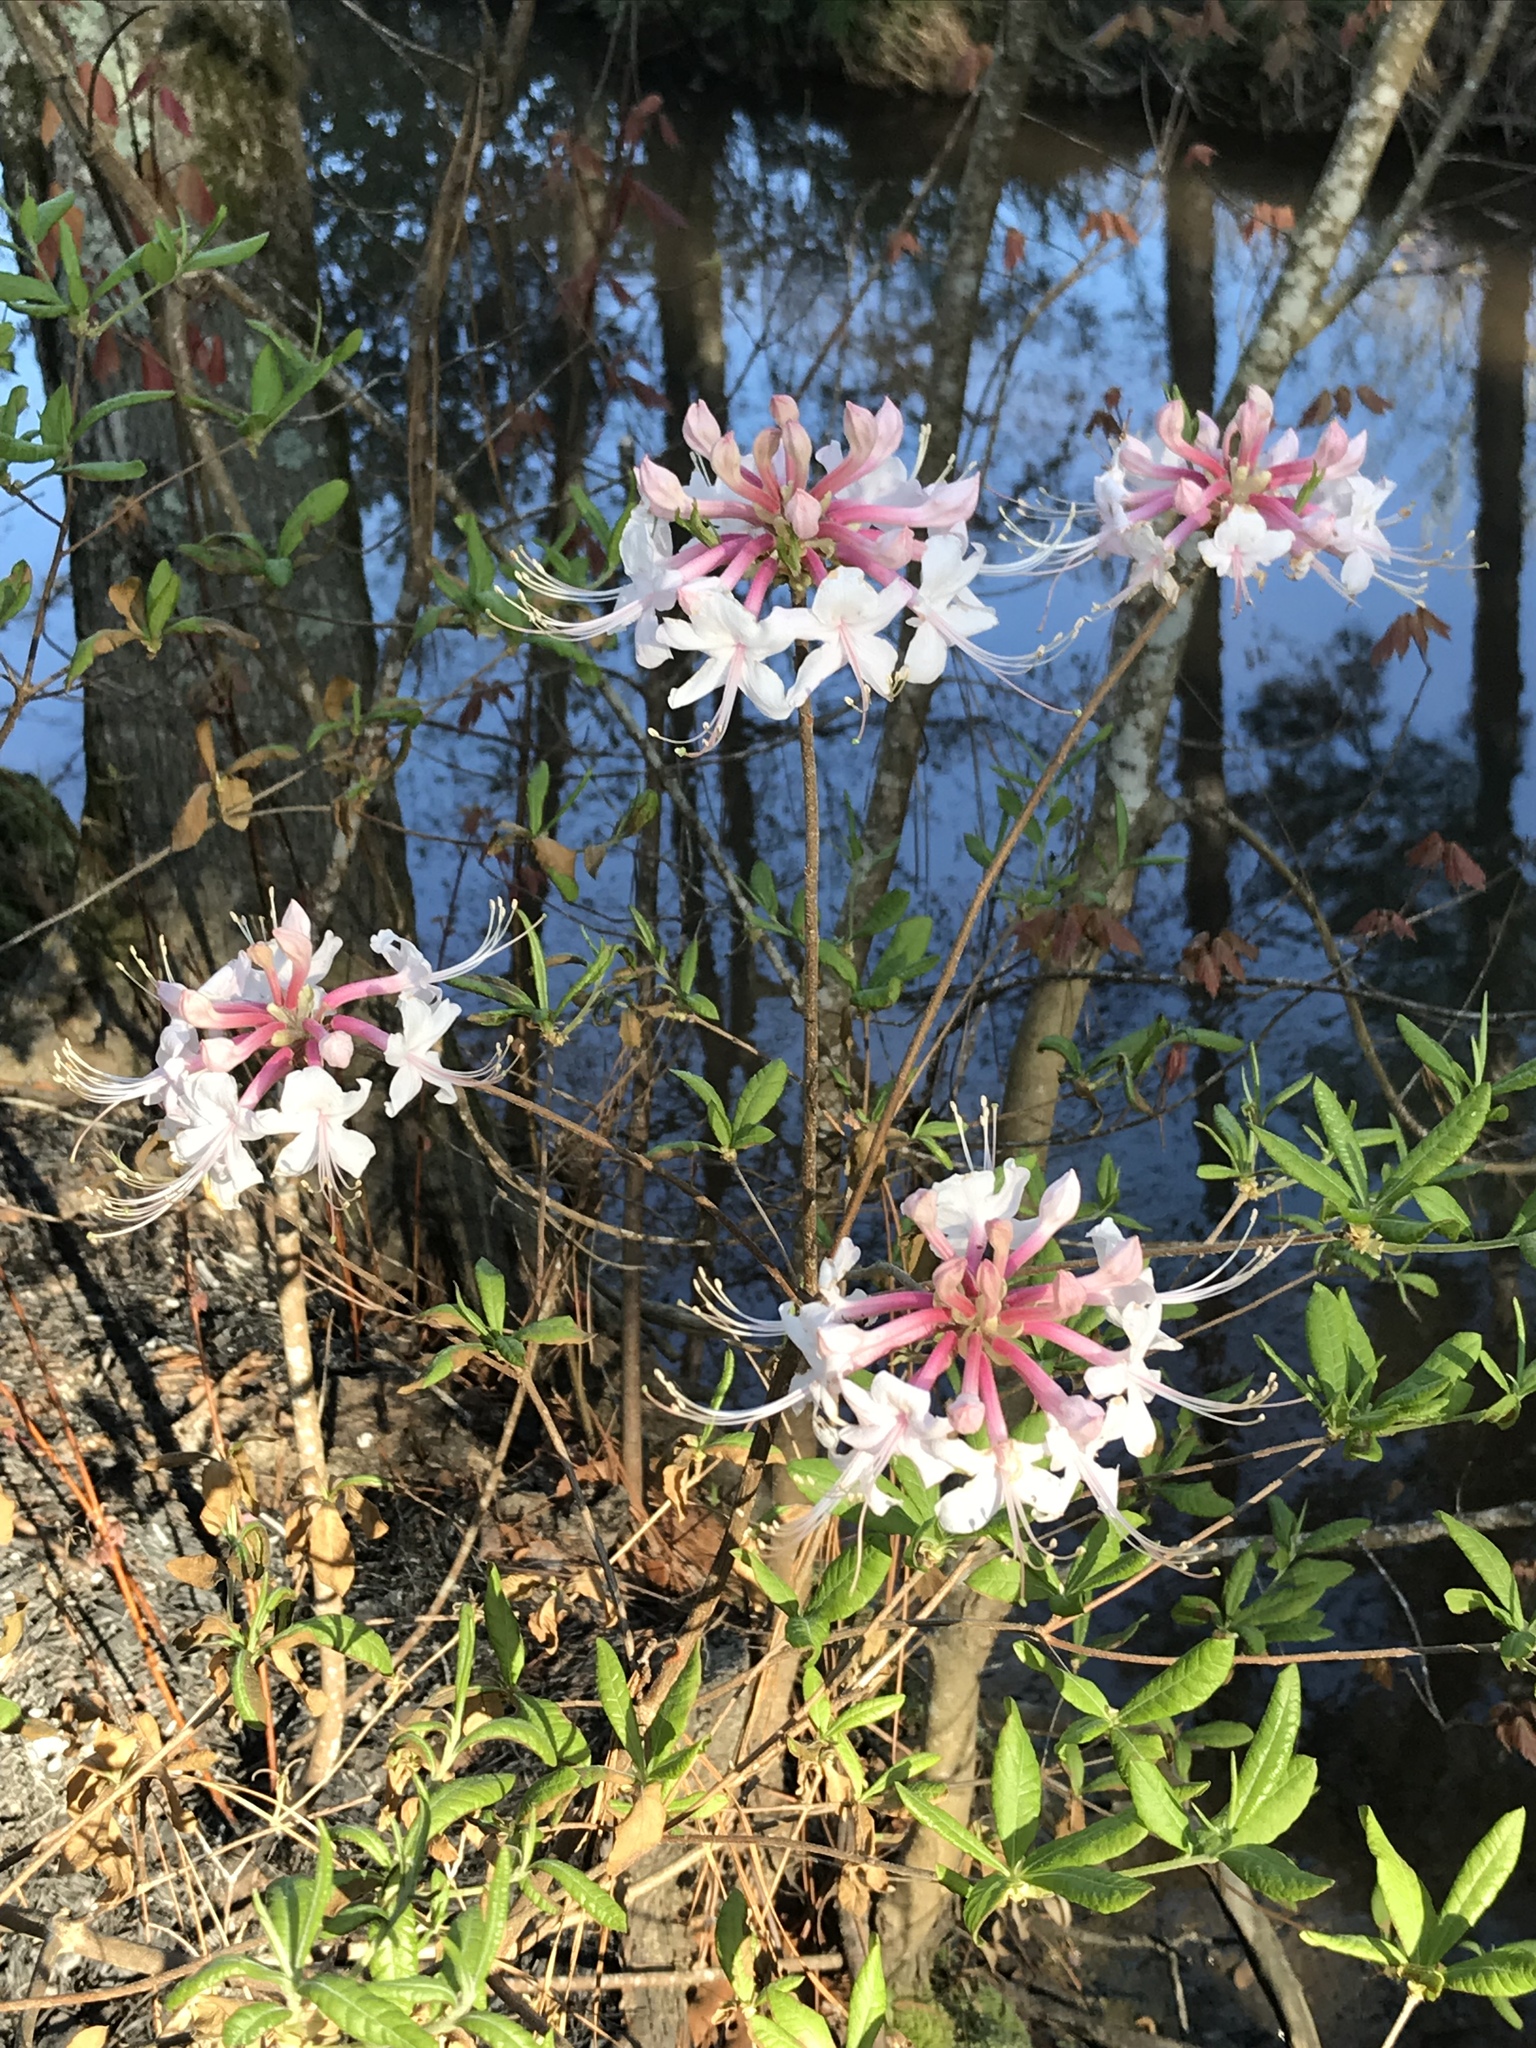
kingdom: Plantae
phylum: Tracheophyta
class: Magnoliopsida
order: Ericales
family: Ericaceae
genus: Rhododendron
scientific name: Rhododendron canescens
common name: Mountain azalea
